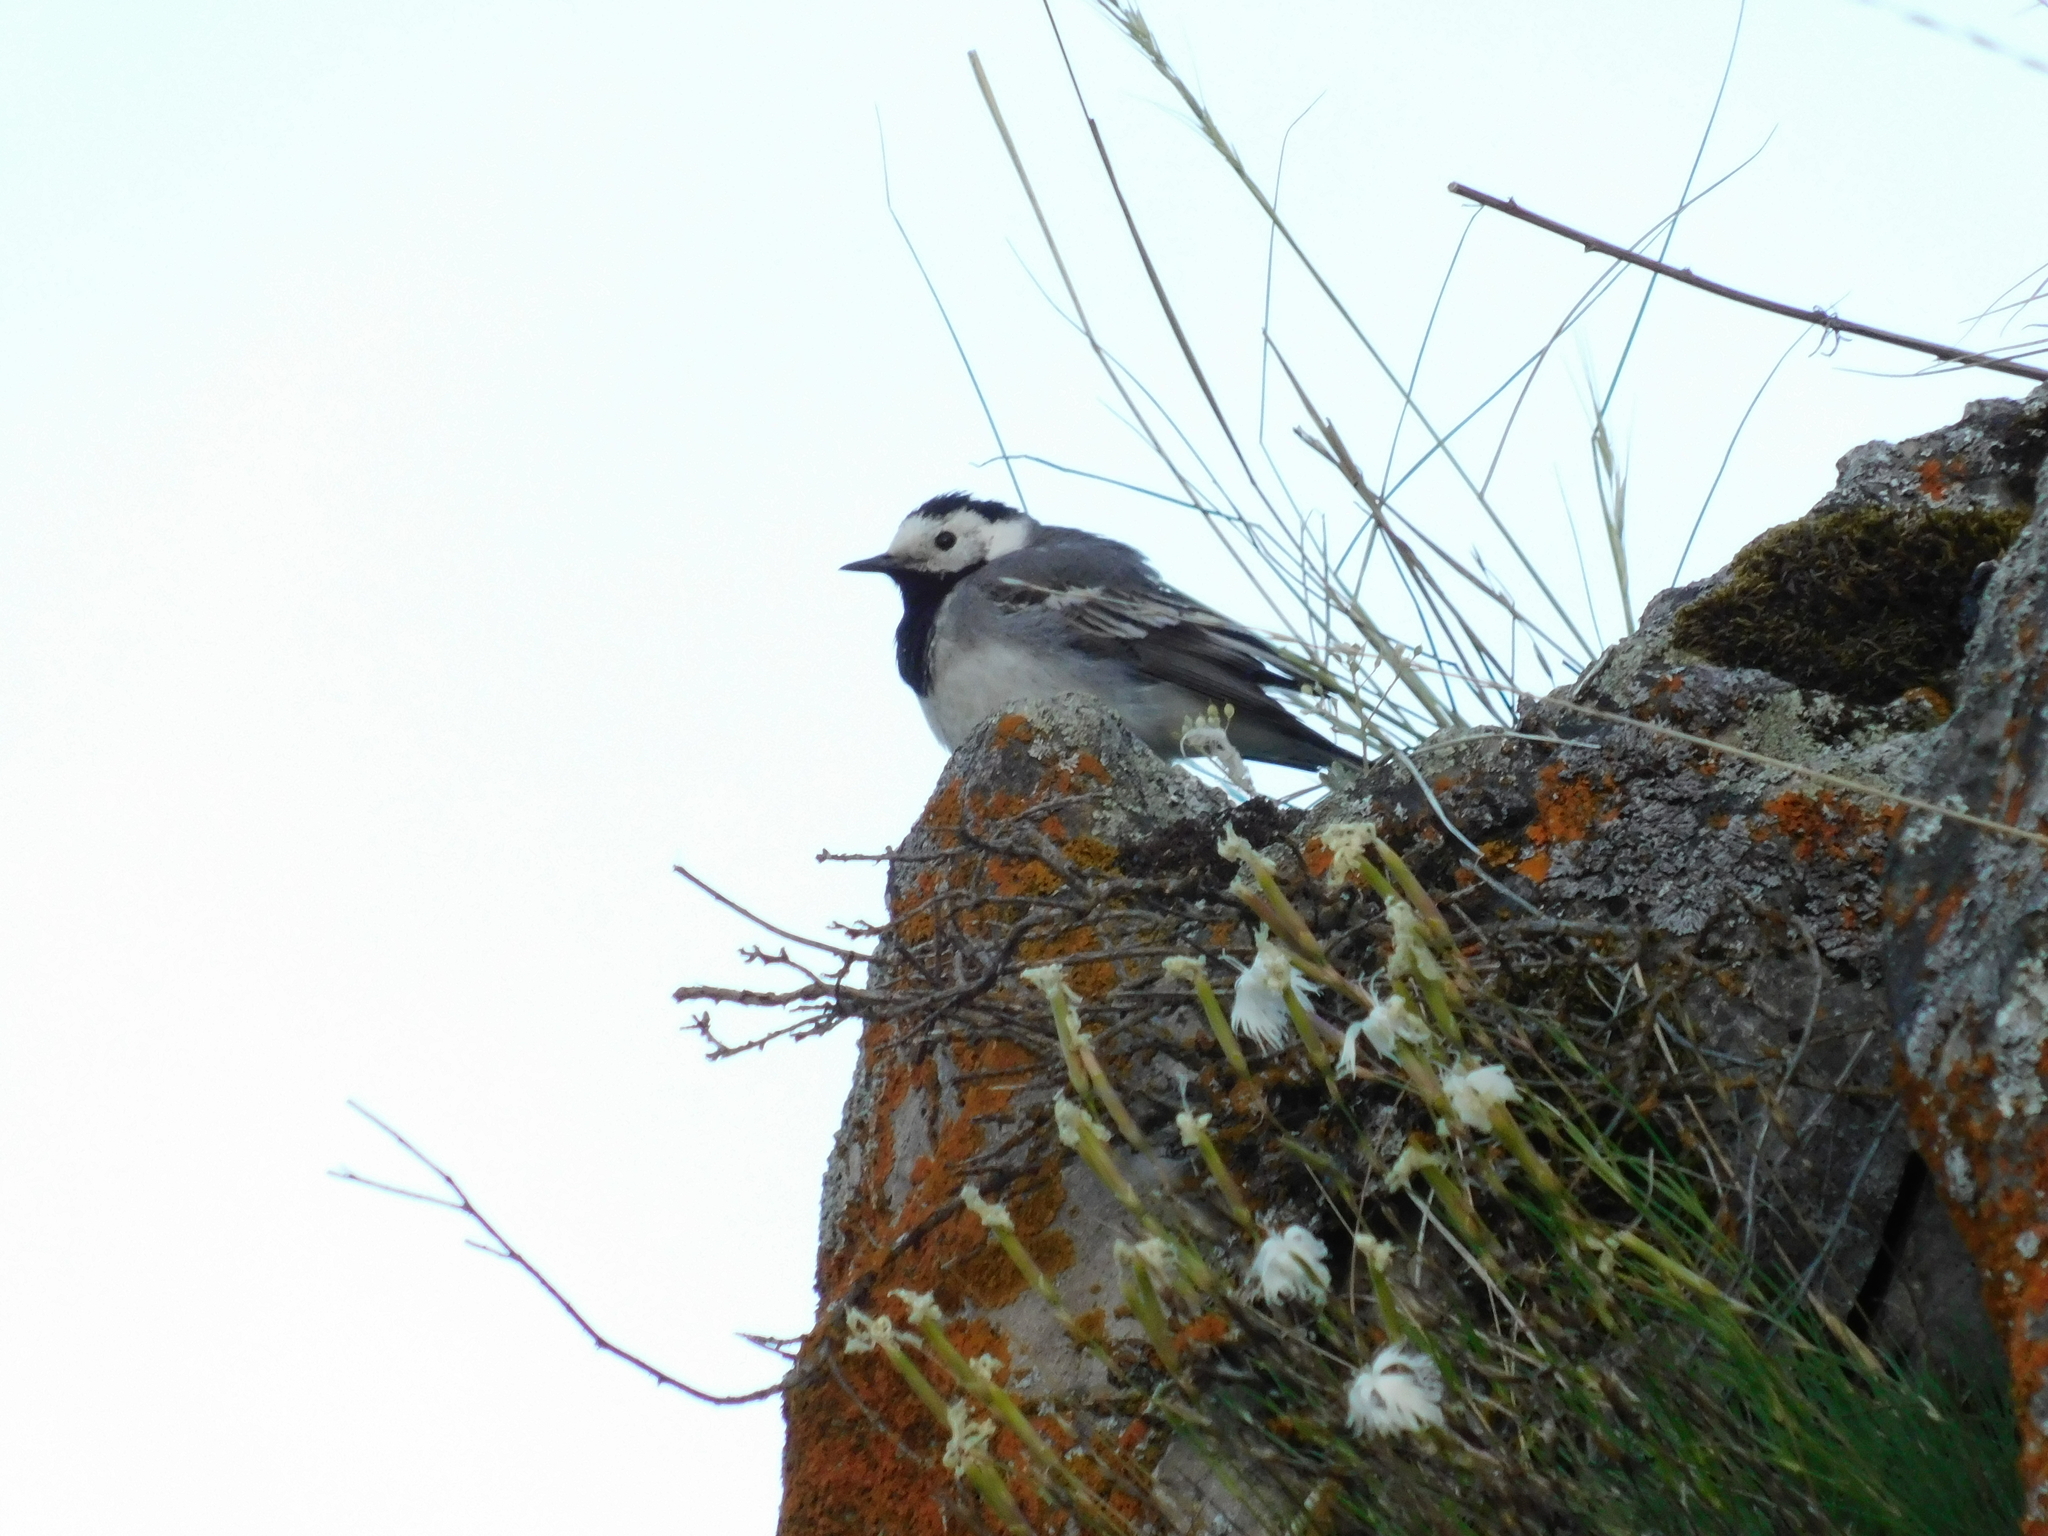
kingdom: Animalia
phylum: Chordata
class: Aves
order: Passeriformes
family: Motacillidae
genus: Motacilla
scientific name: Motacilla alba
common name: White wagtail
